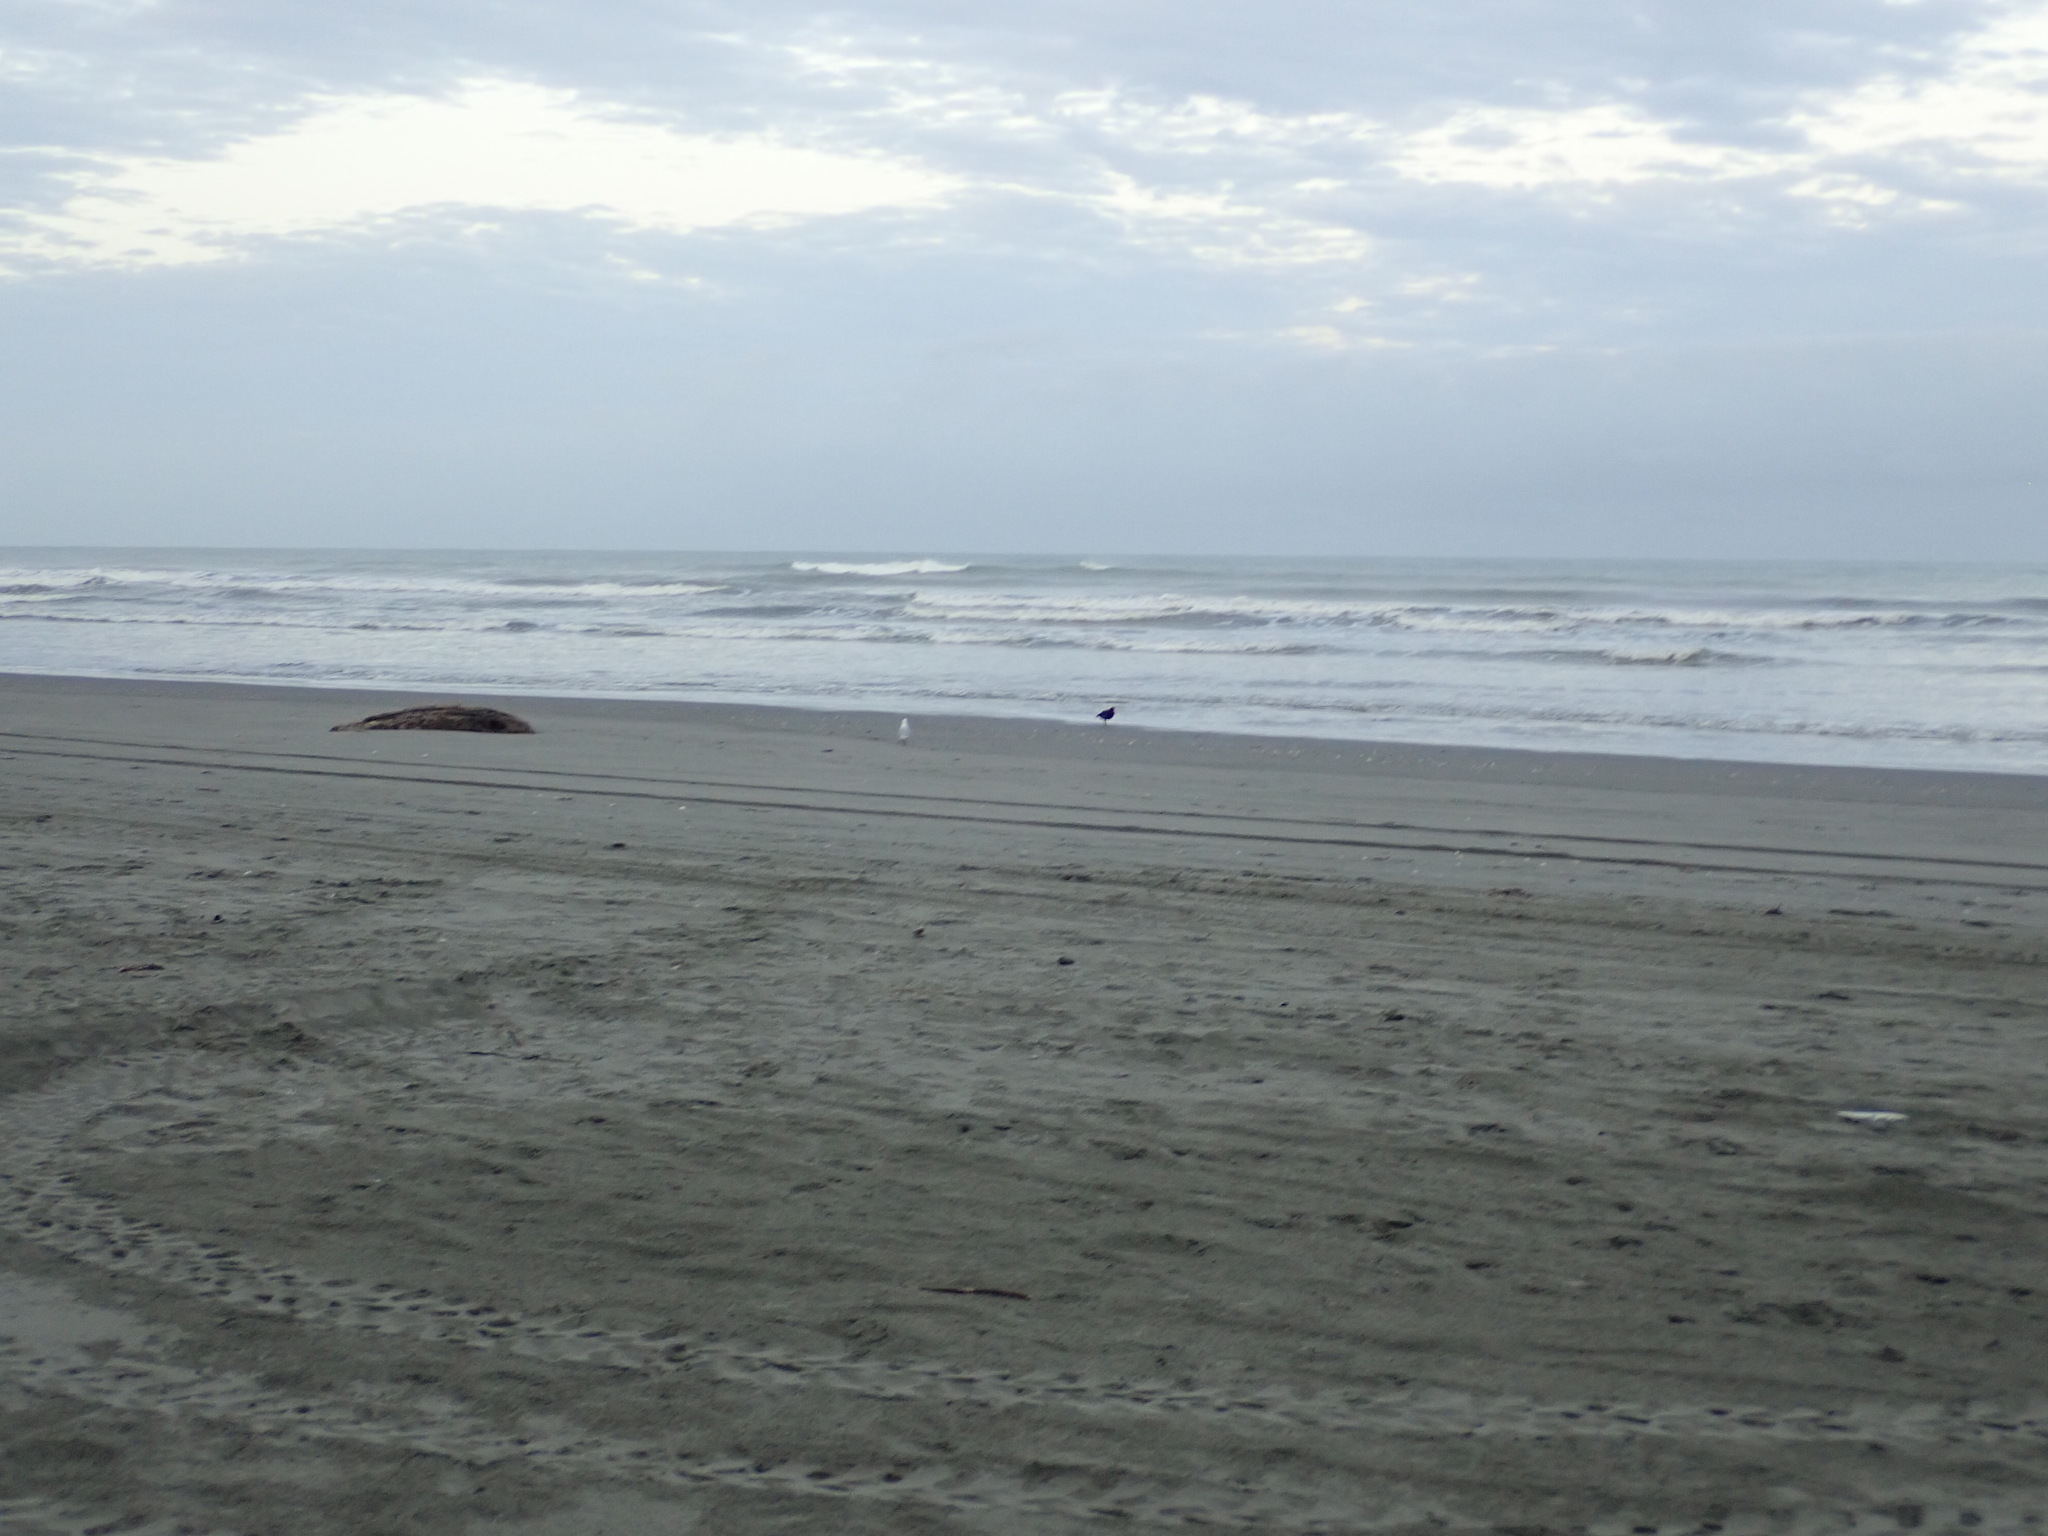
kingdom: Animalia
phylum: Chordata
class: Aves
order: Charadriiformes
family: Haematopodidae
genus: Haematopus
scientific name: Haematopus unicolor
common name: Variable oystercatcher
